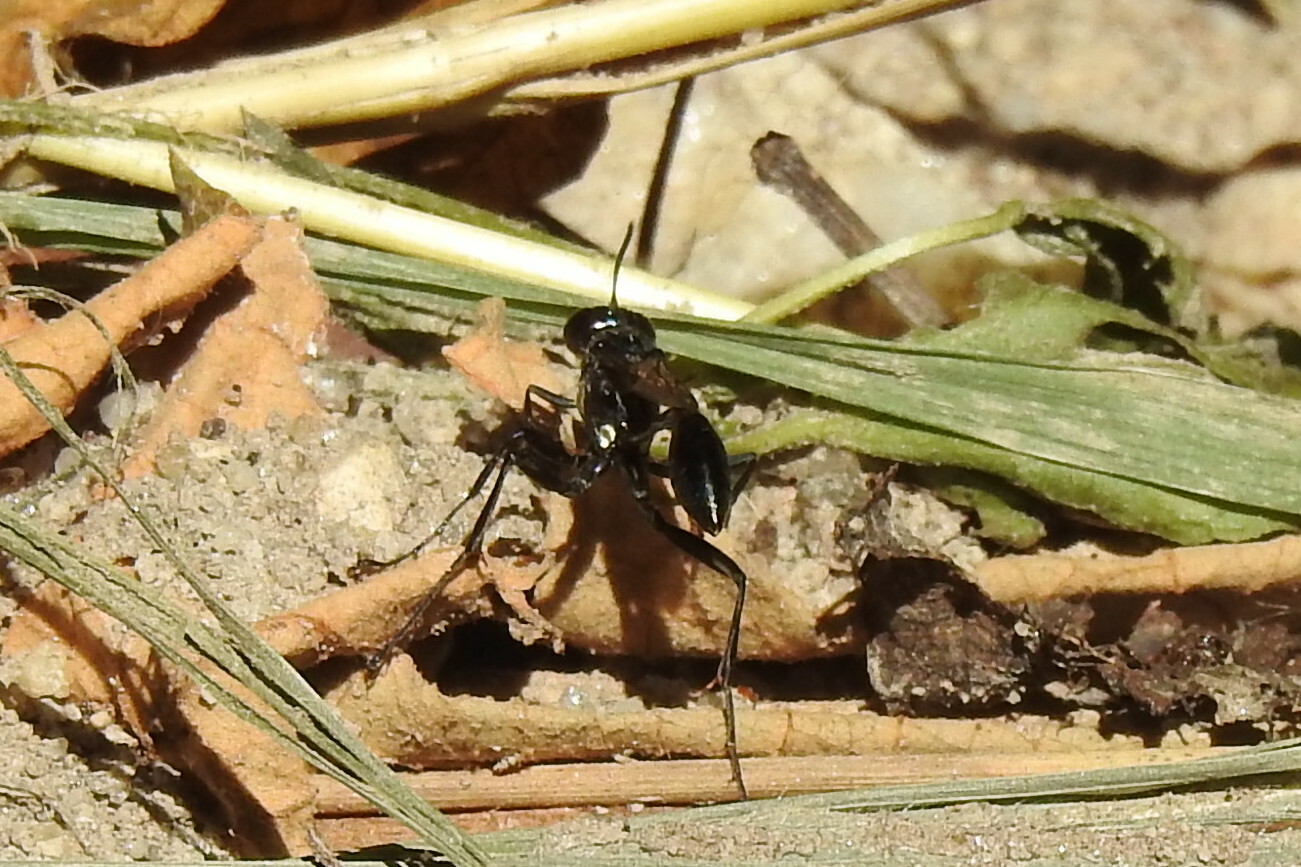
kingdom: Animalia
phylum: Arthropoda
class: Insecta
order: Hymenoptera
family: Sphecidae
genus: Eremnophila
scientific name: Eremnophila aureonotata
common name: Gold-marked thread-waisted wasp
